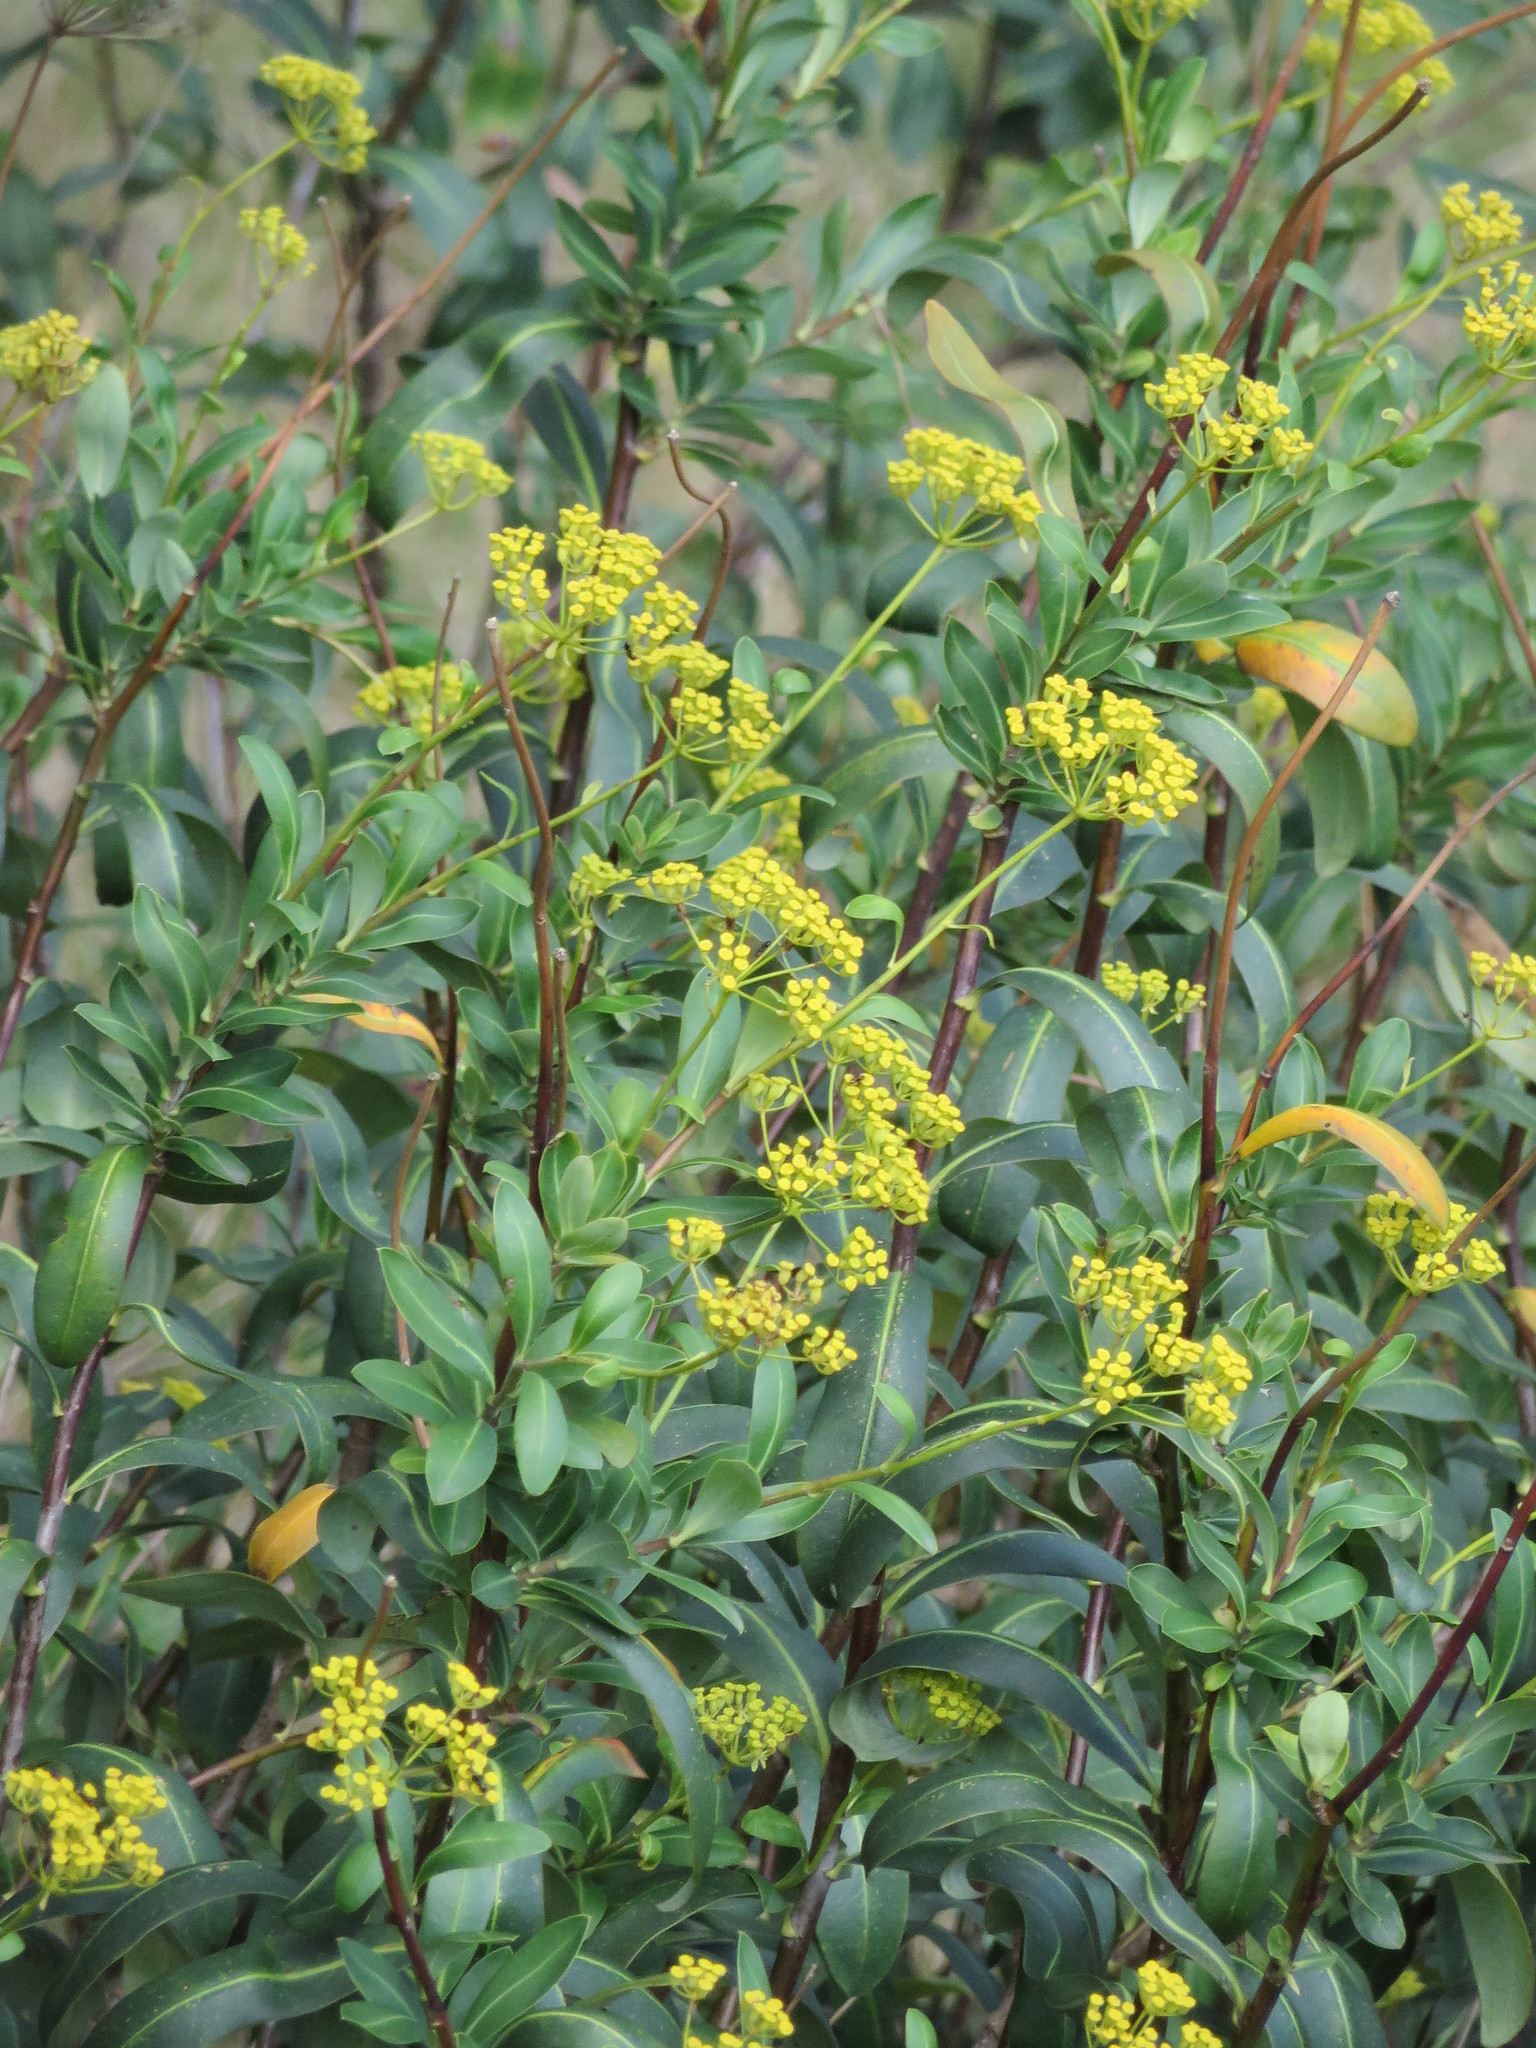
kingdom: Plantae
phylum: Tracheophyta
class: Magnoliopsida
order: Apiales
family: Apiaceae
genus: Bupleurum
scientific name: Bupleurum fruticosum
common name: Shrubby hare's-ear
